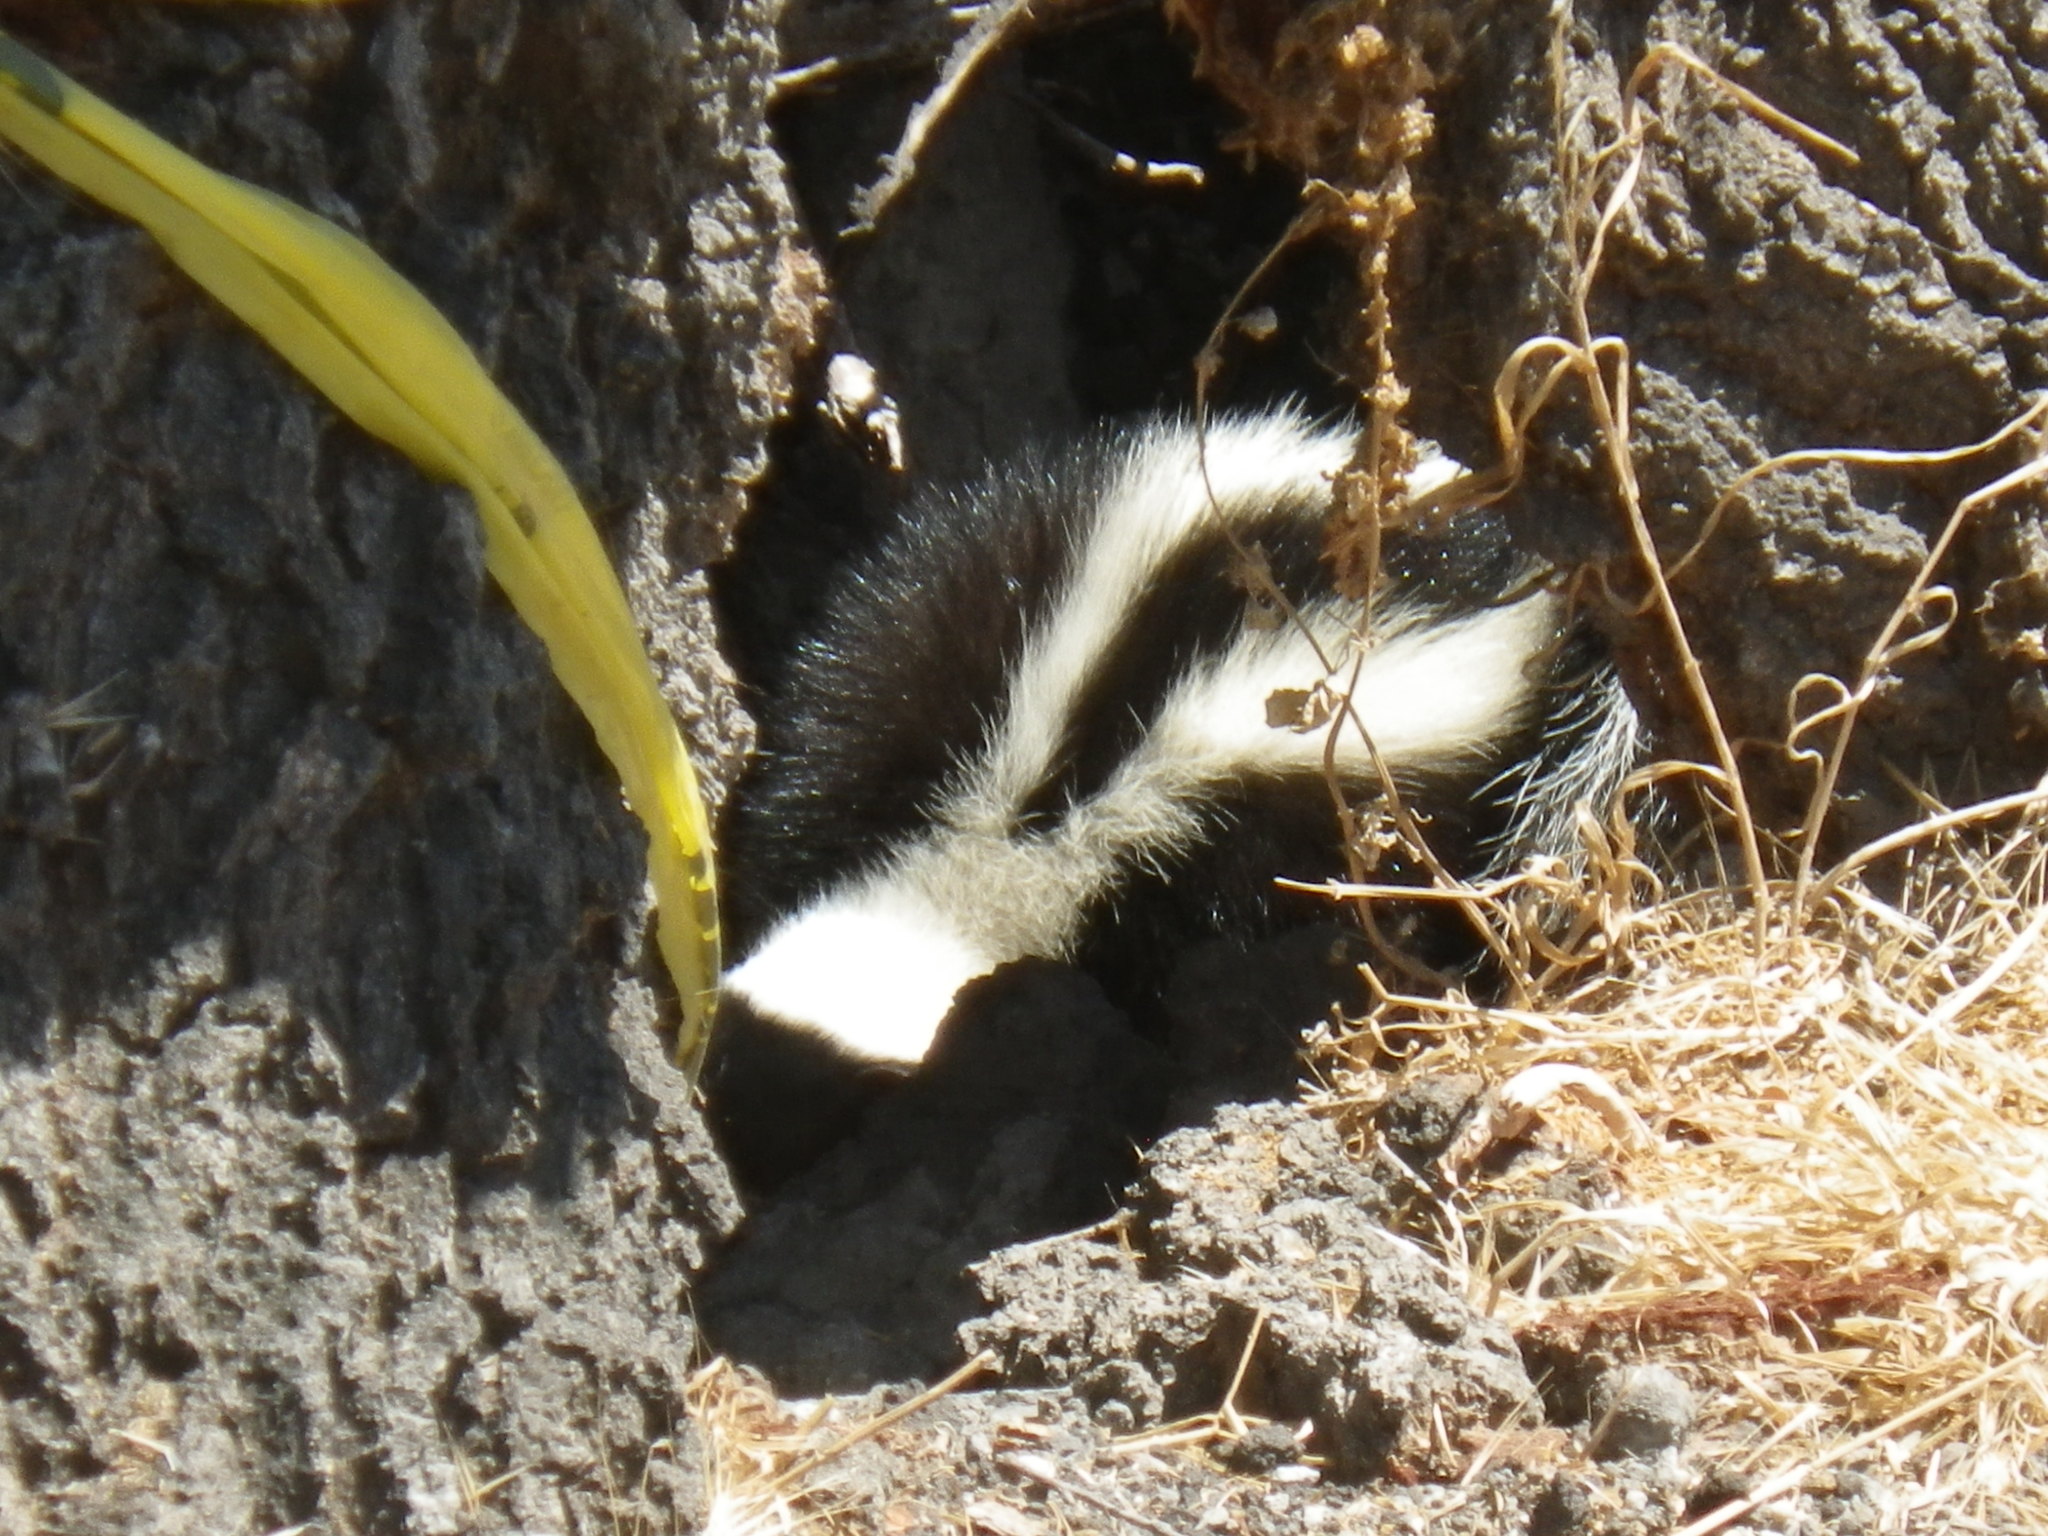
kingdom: Animalia
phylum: Chordata
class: Mammalia
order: Carnivora
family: Mephitidae
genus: Mephitis
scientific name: Mephitis mephitis
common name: Striped skunk
